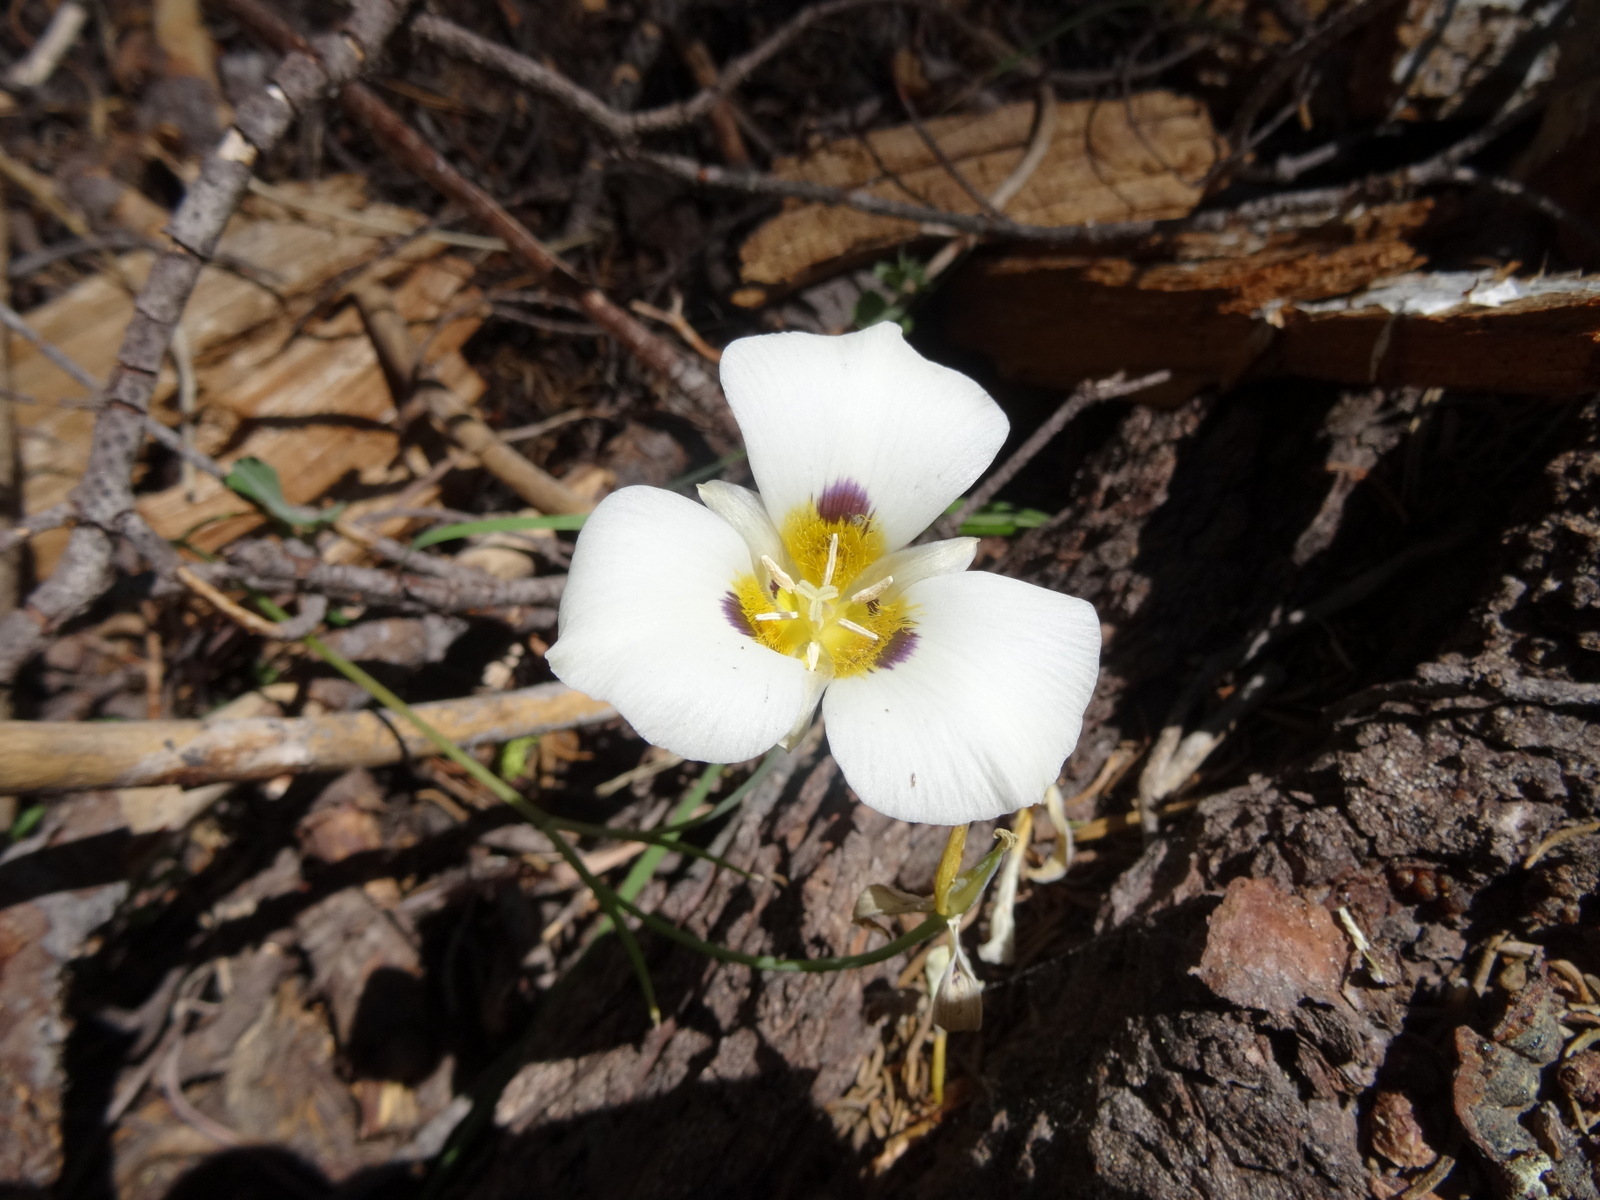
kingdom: Plantae
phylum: Tracheophyta
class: Liliopsida
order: Liliales
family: Liliaceae
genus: Calochortus
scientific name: Calochortus leichtlinii
